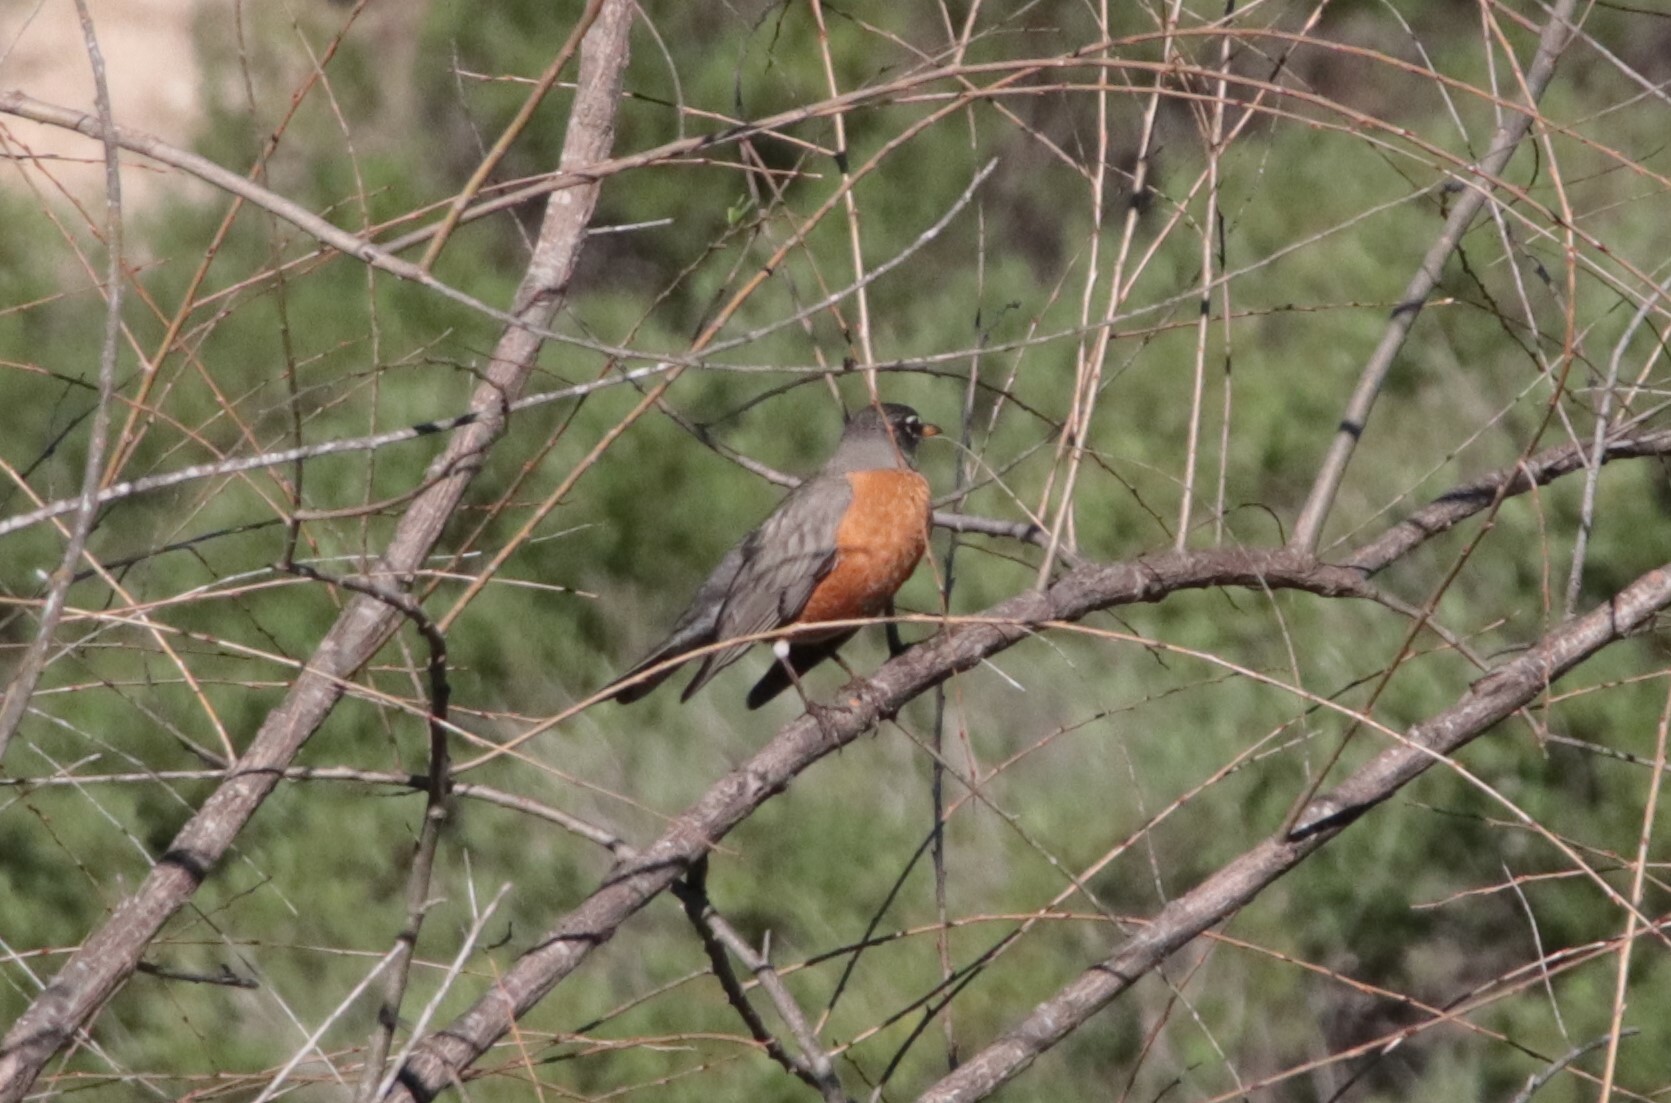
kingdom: Animalia
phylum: Chordata
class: Aves
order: Passeriformes
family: Turdidae
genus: Turdus
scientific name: Turdus migratorius
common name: American robin
